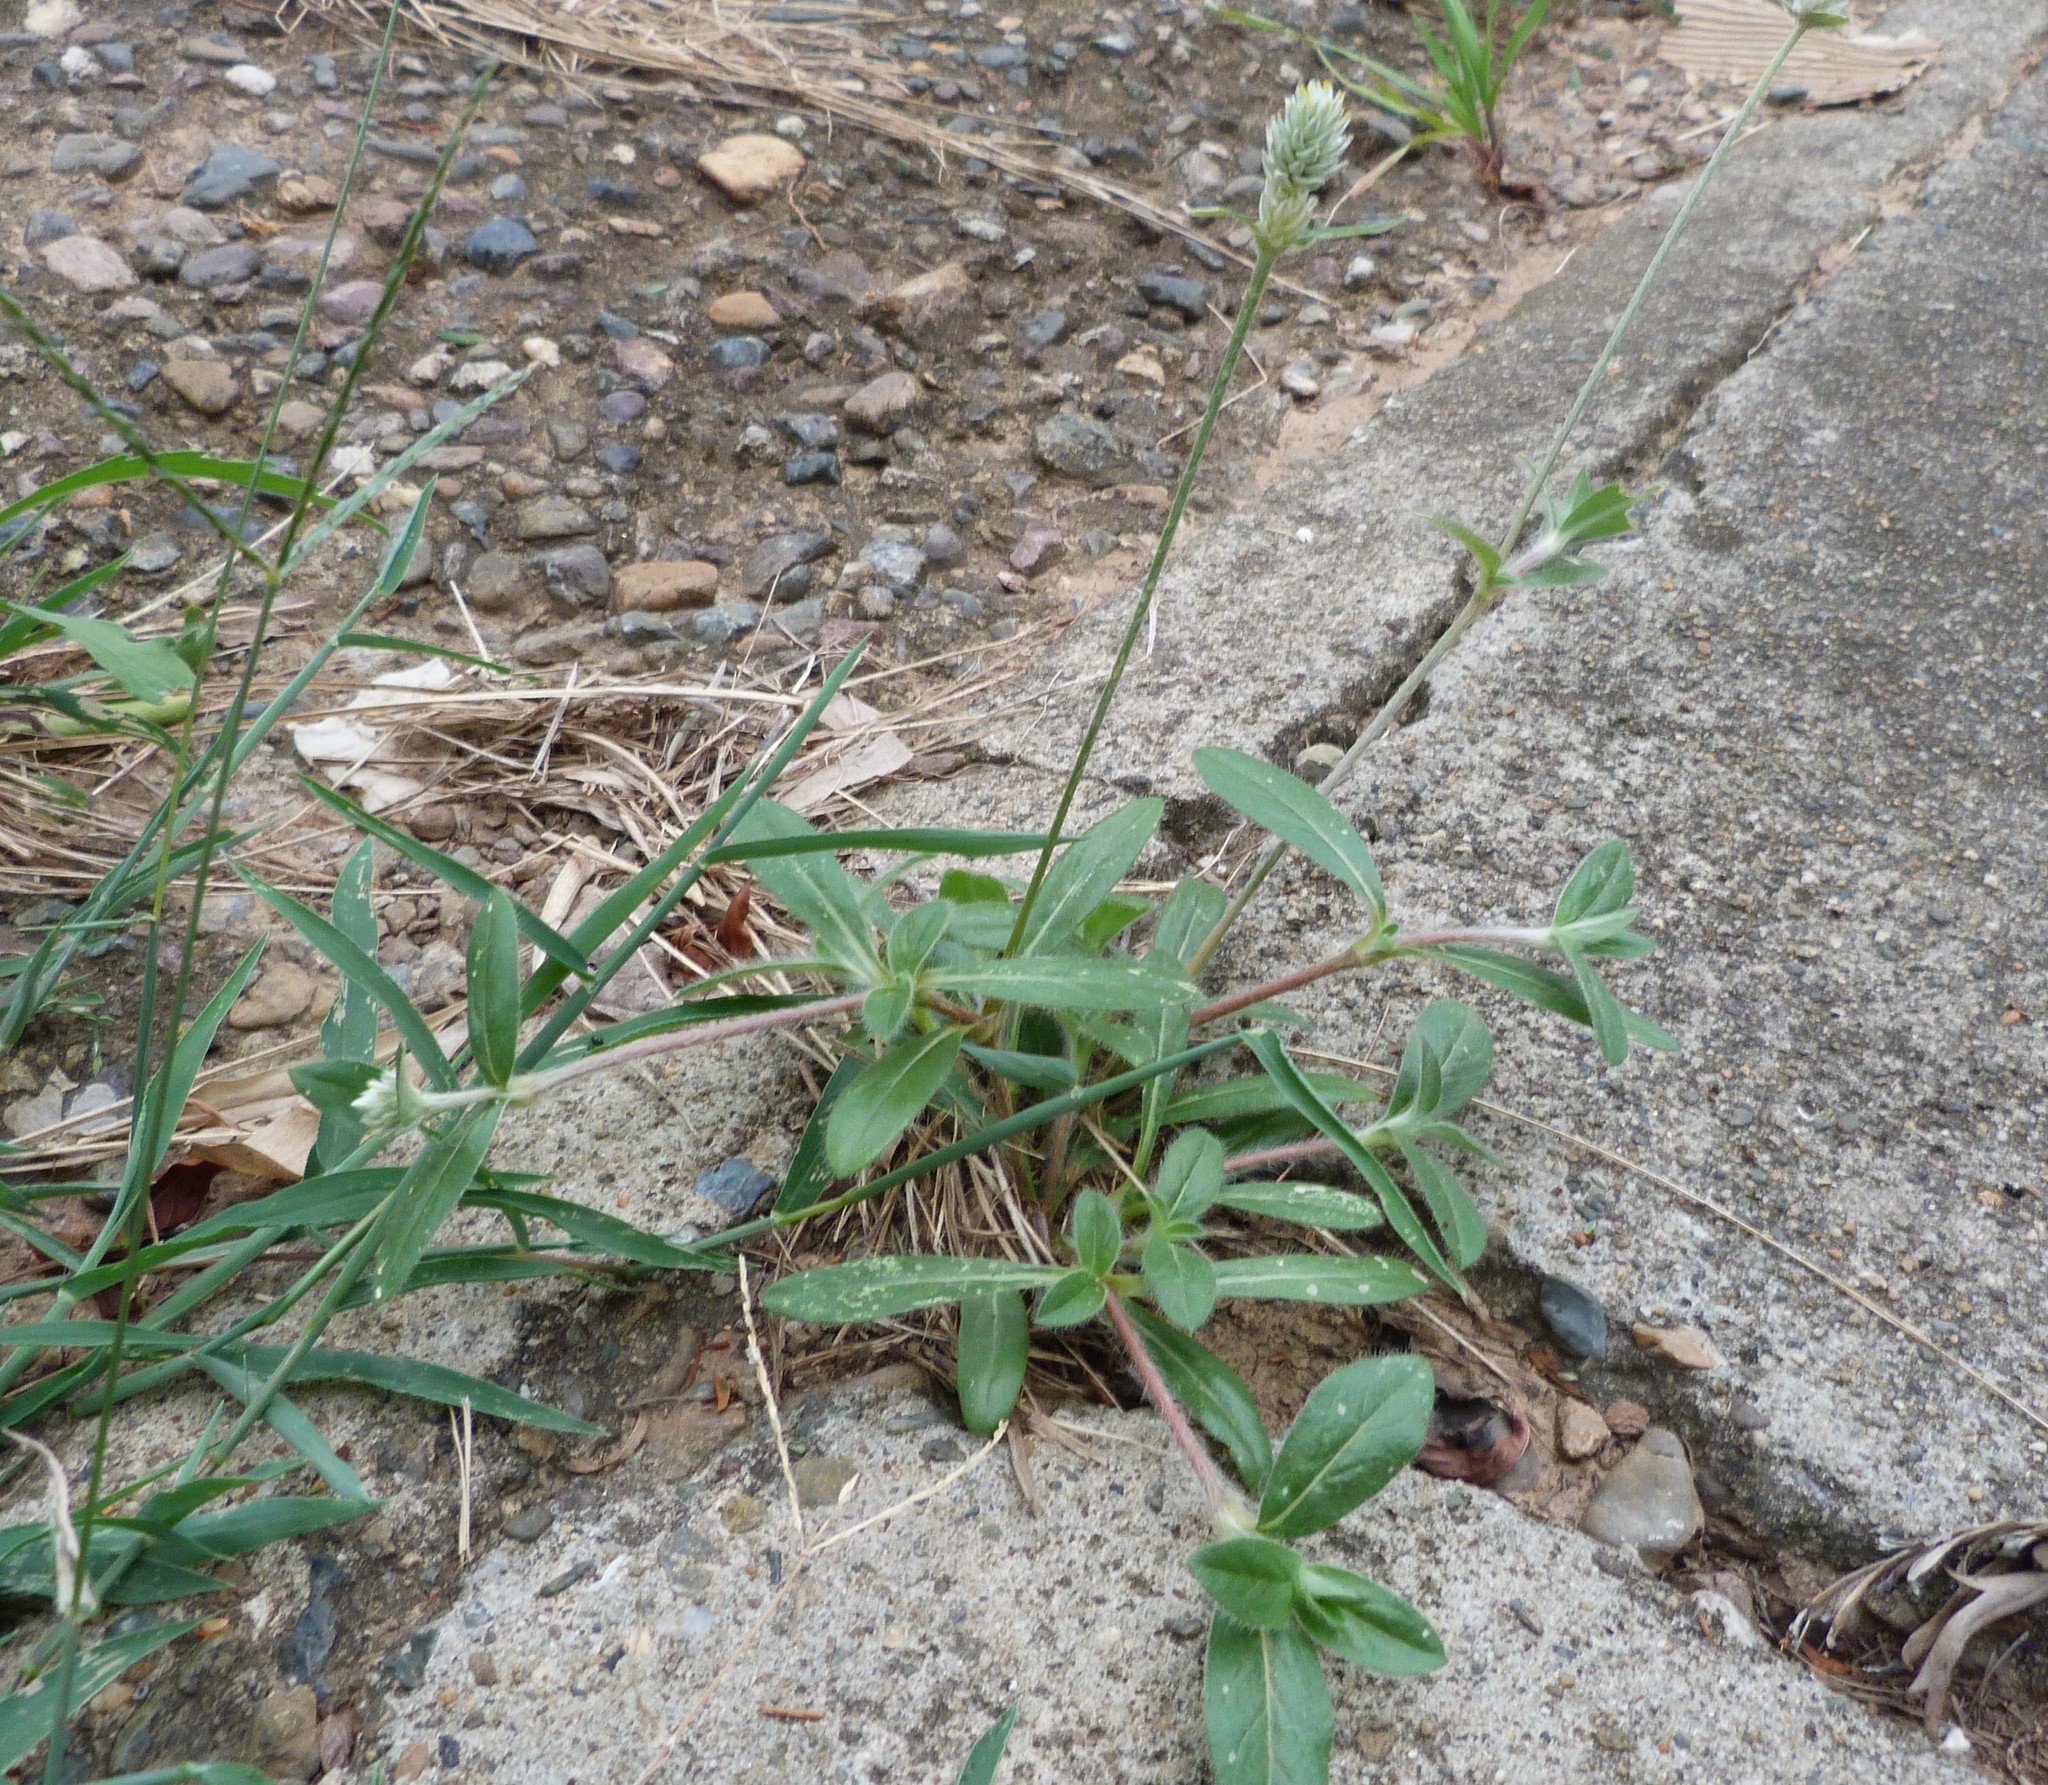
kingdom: Plantae
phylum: Tracheophyta
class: Magnoliopsida
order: Caryophyllales
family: Amaranthaceae
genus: Gomphrena
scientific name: Gomphrena celosioides
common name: Gomphrena-weed
